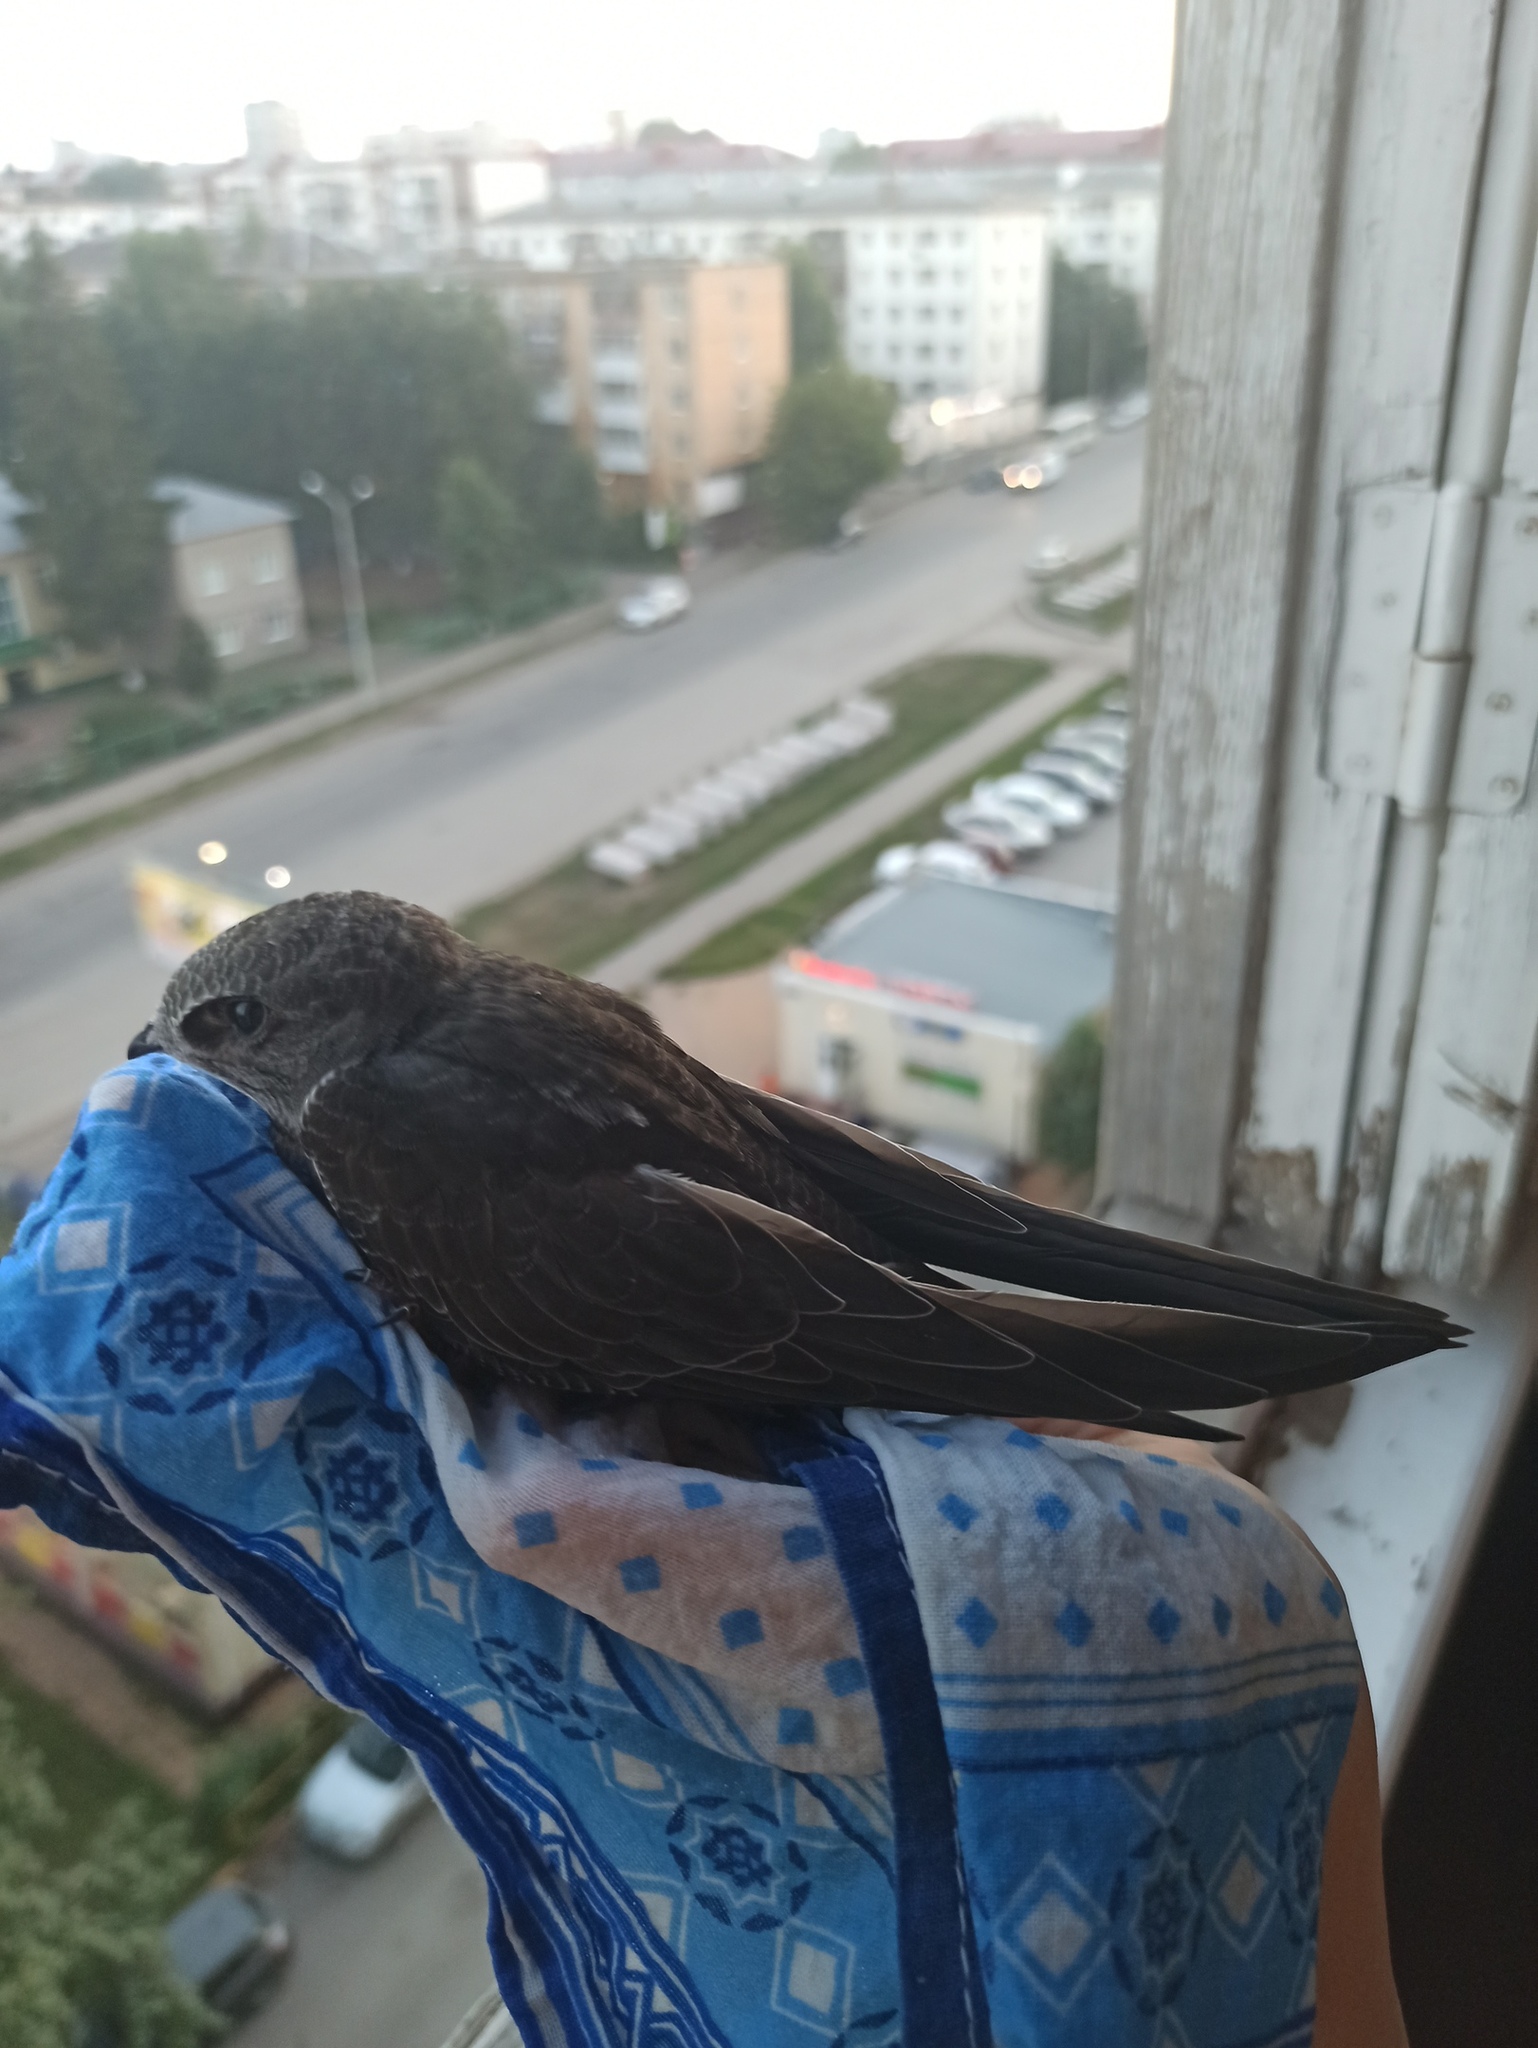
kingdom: Animalia
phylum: Chordata
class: Aves
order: Apodiformes
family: Apodidae
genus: Apus
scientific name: Apus apus
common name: Common swift
